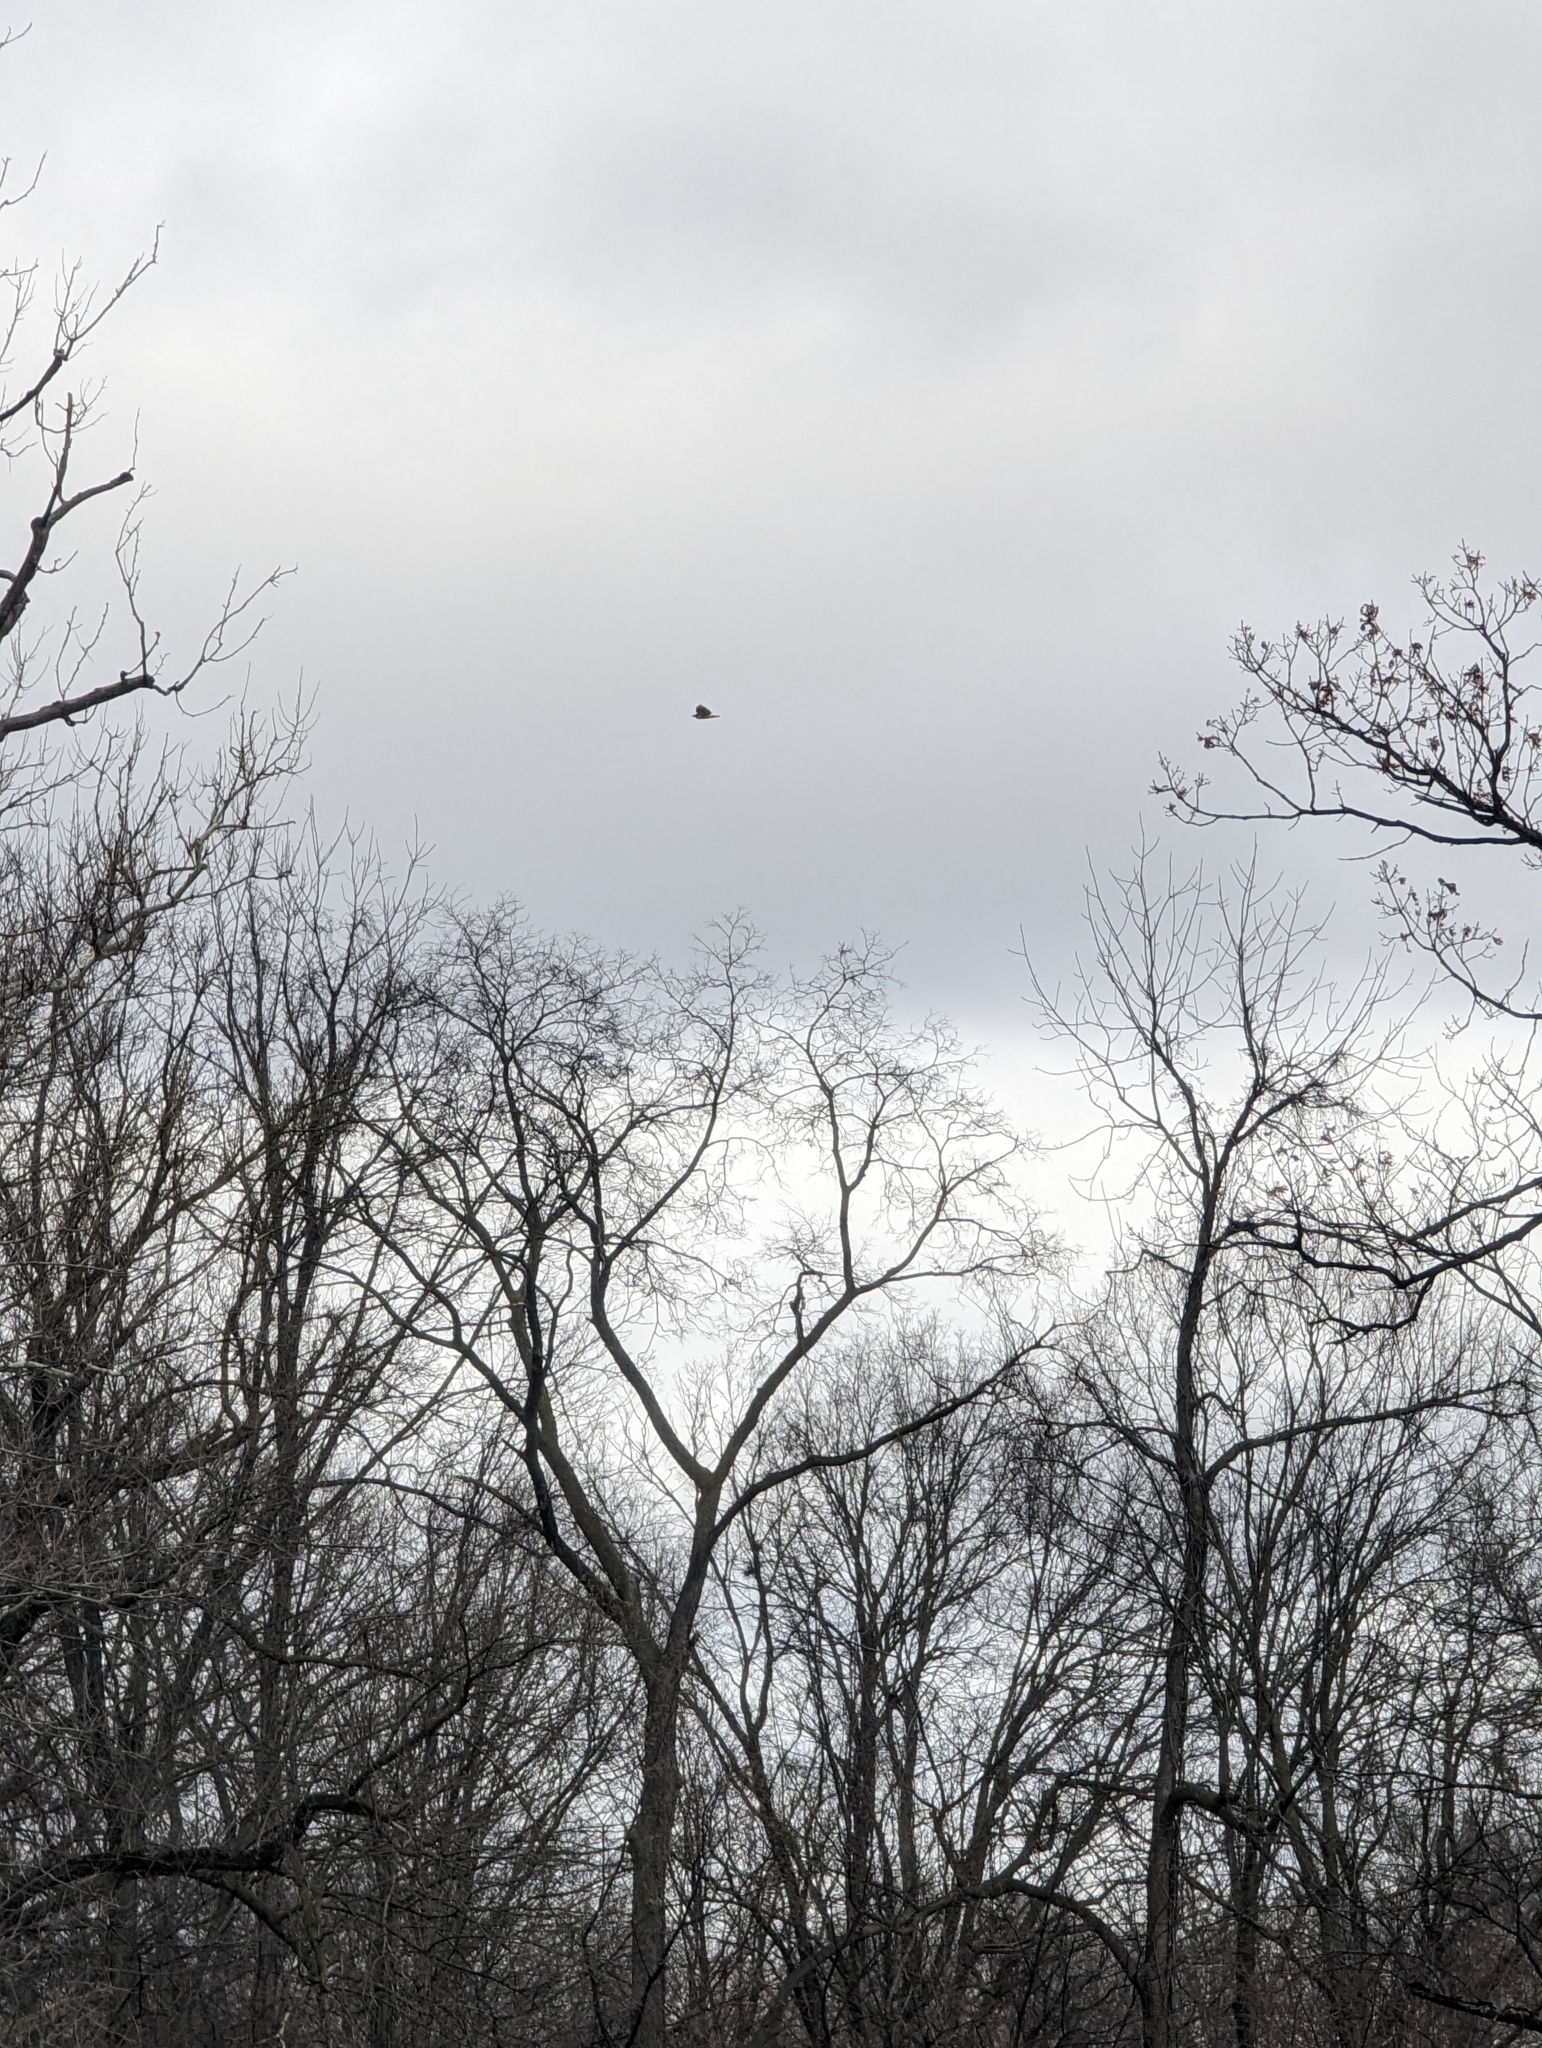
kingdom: Animalia
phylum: Chordata
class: Aves
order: Accipitriformes
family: Accipitridae
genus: Buteo
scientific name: Buteo jamaicensis
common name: Red-tailed hawk
